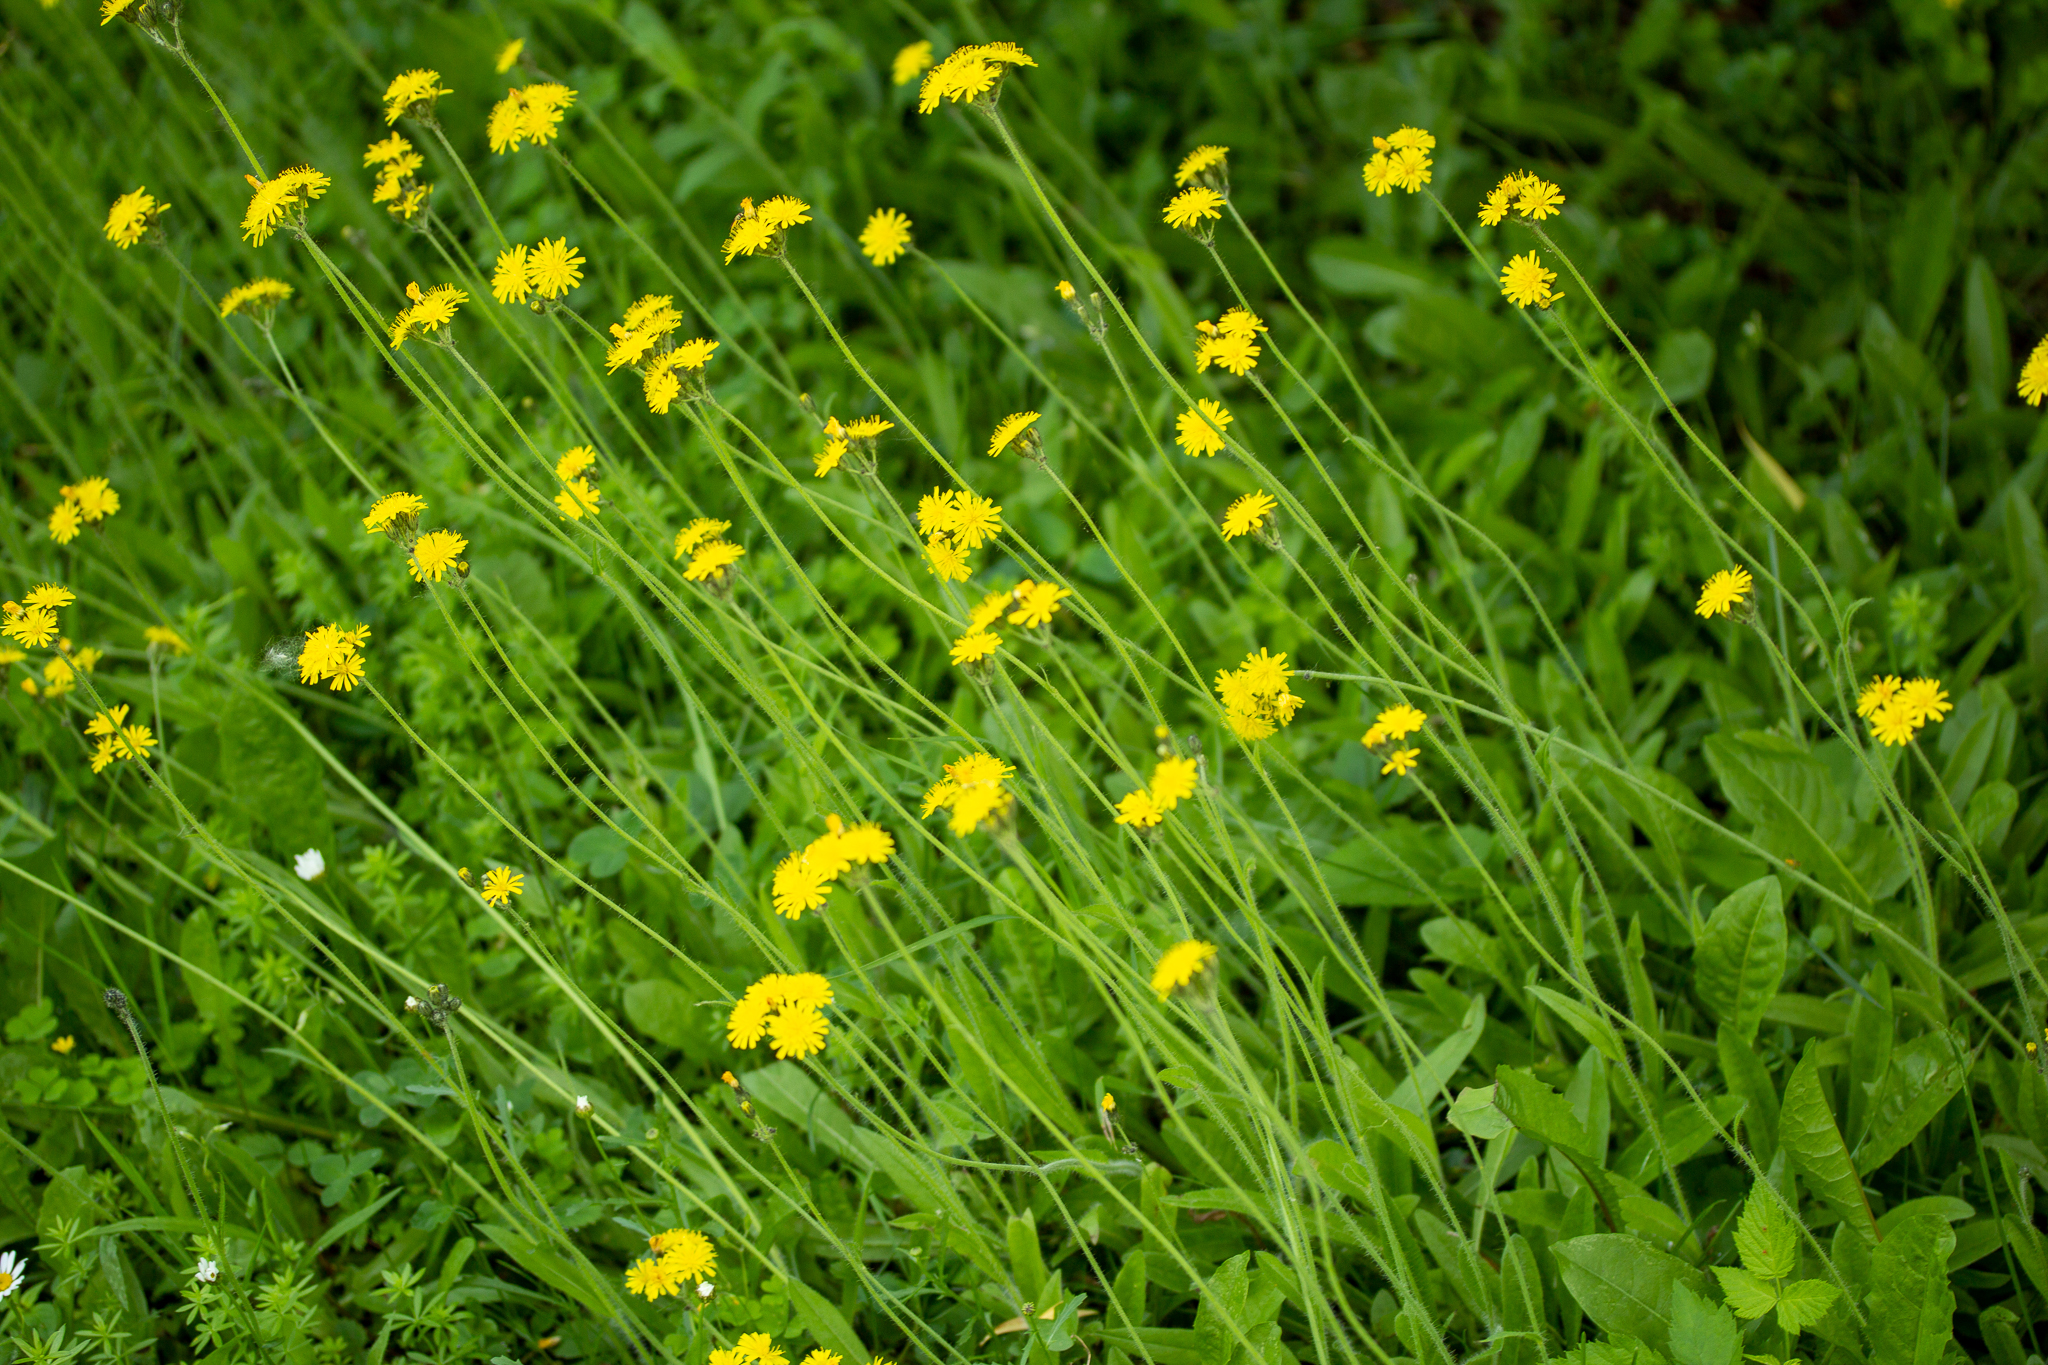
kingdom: Plantae
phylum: Tracheophyta
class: Magnoliopsida
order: Asterales
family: Asteraceae
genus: Pilosella
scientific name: Pilosella caespitosa
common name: Yellow fox-and-cubs
